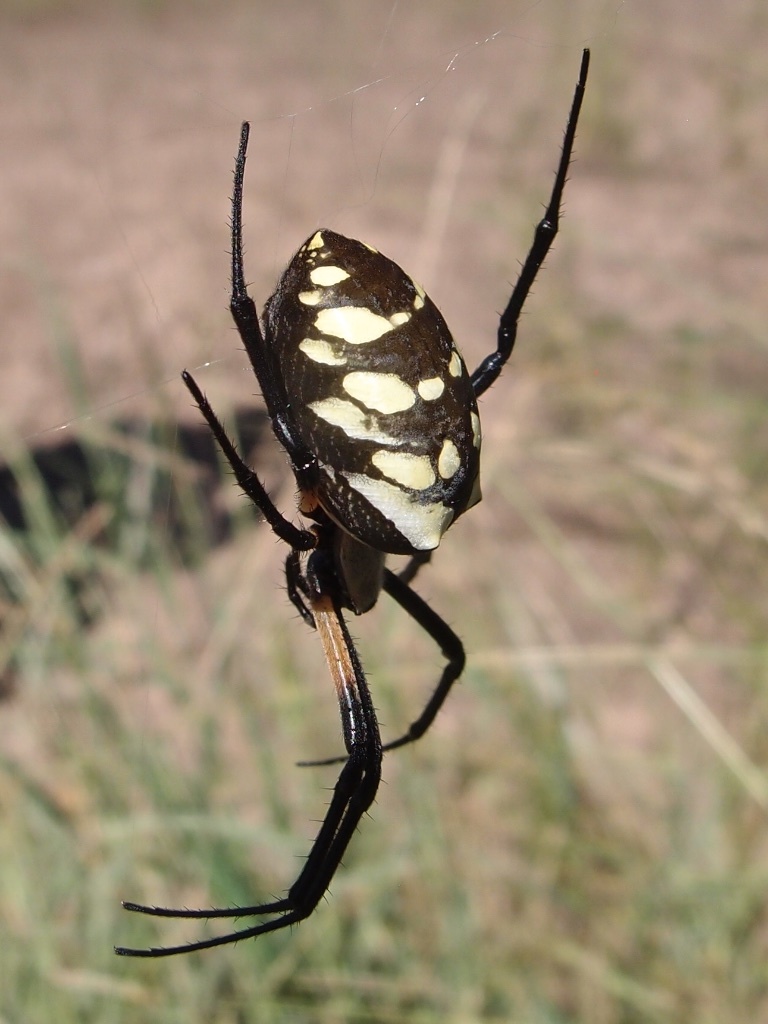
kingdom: Animalia
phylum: Arthropoda
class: Arachnida
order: Araneae
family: Araneidae
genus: Argiope
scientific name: Argiope aurantia
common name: Orb weavers
